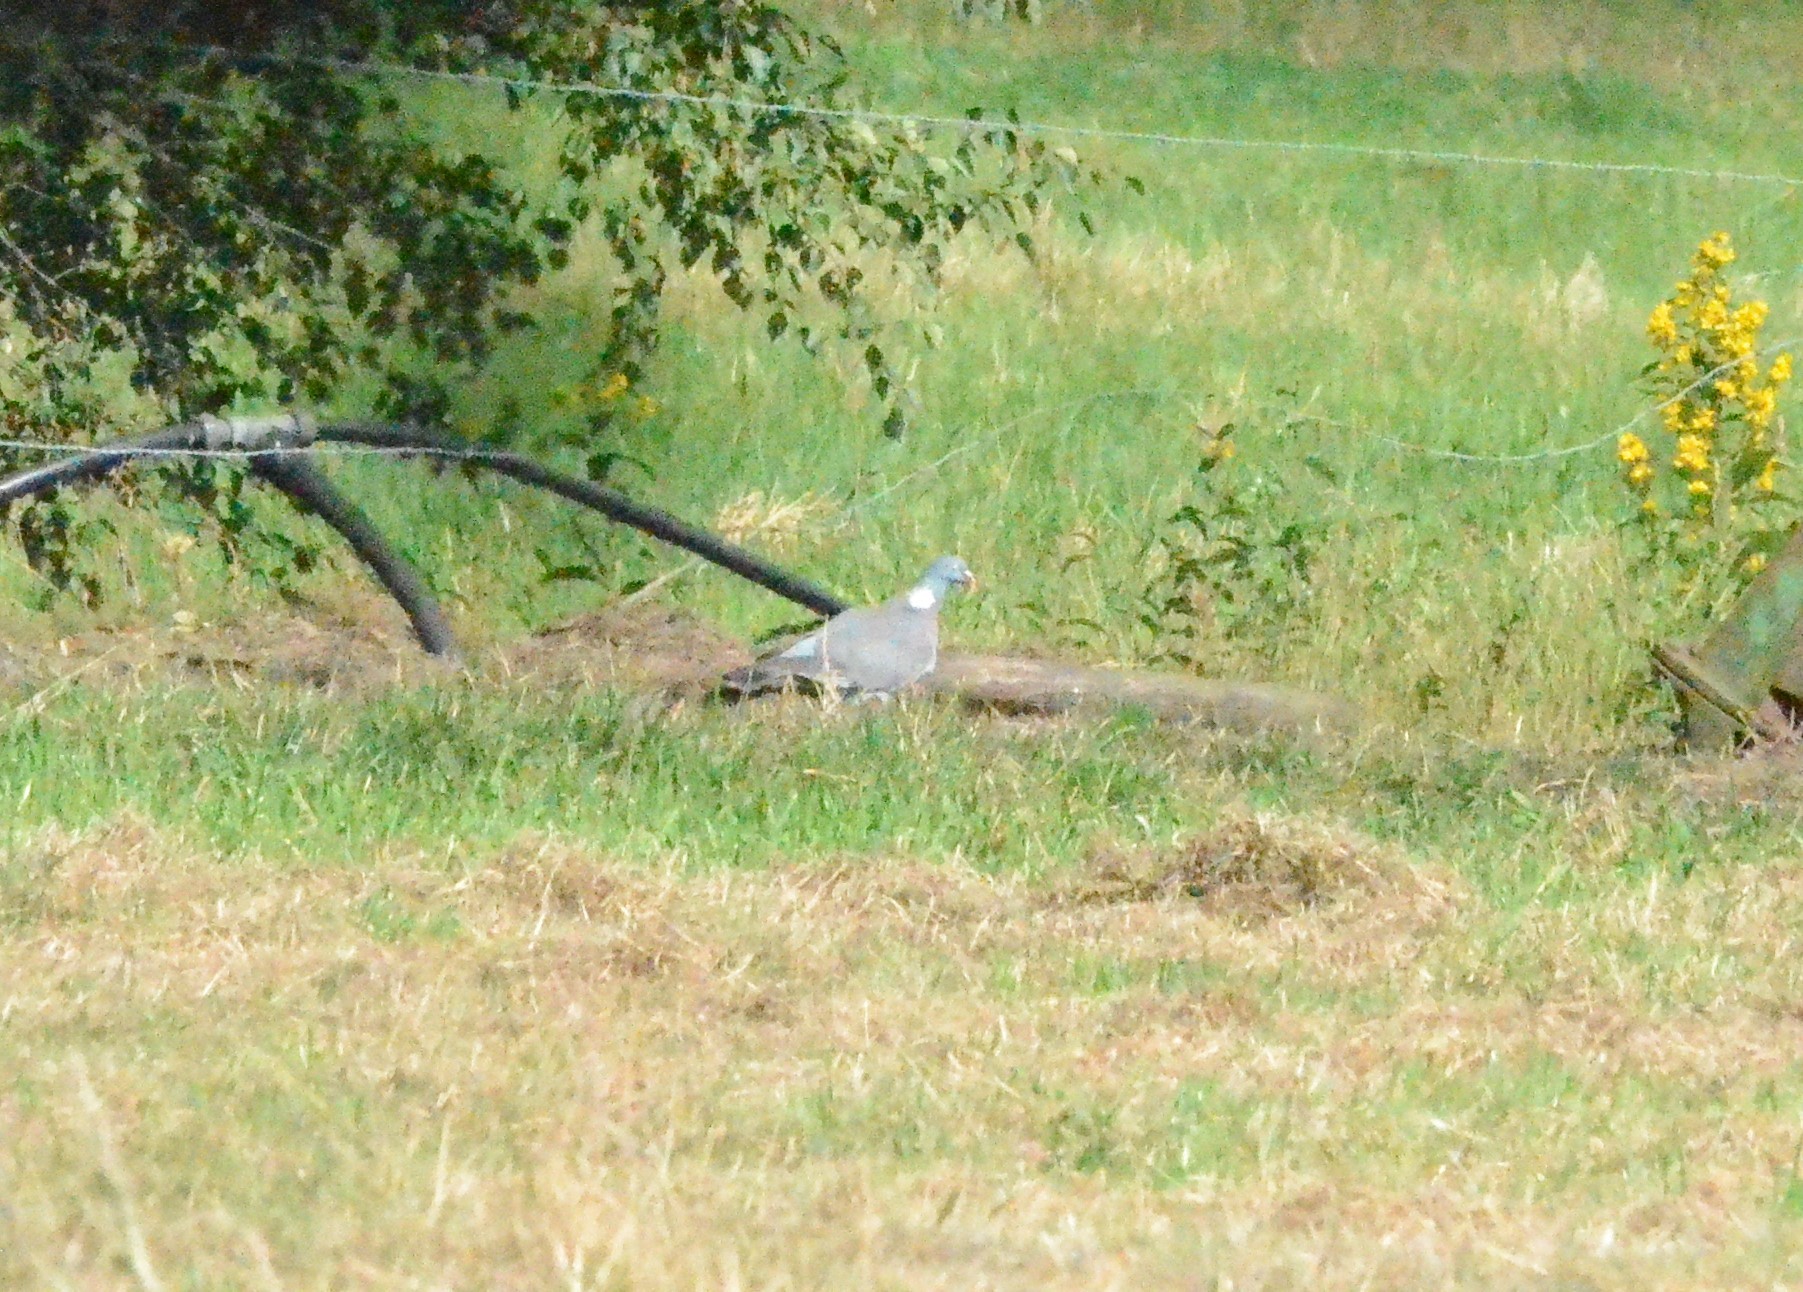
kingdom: Animalia
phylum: Chordata
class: Aves
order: Columbiformes
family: Columbidae
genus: Columba
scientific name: Columba palumbus
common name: Common wood pigeon
